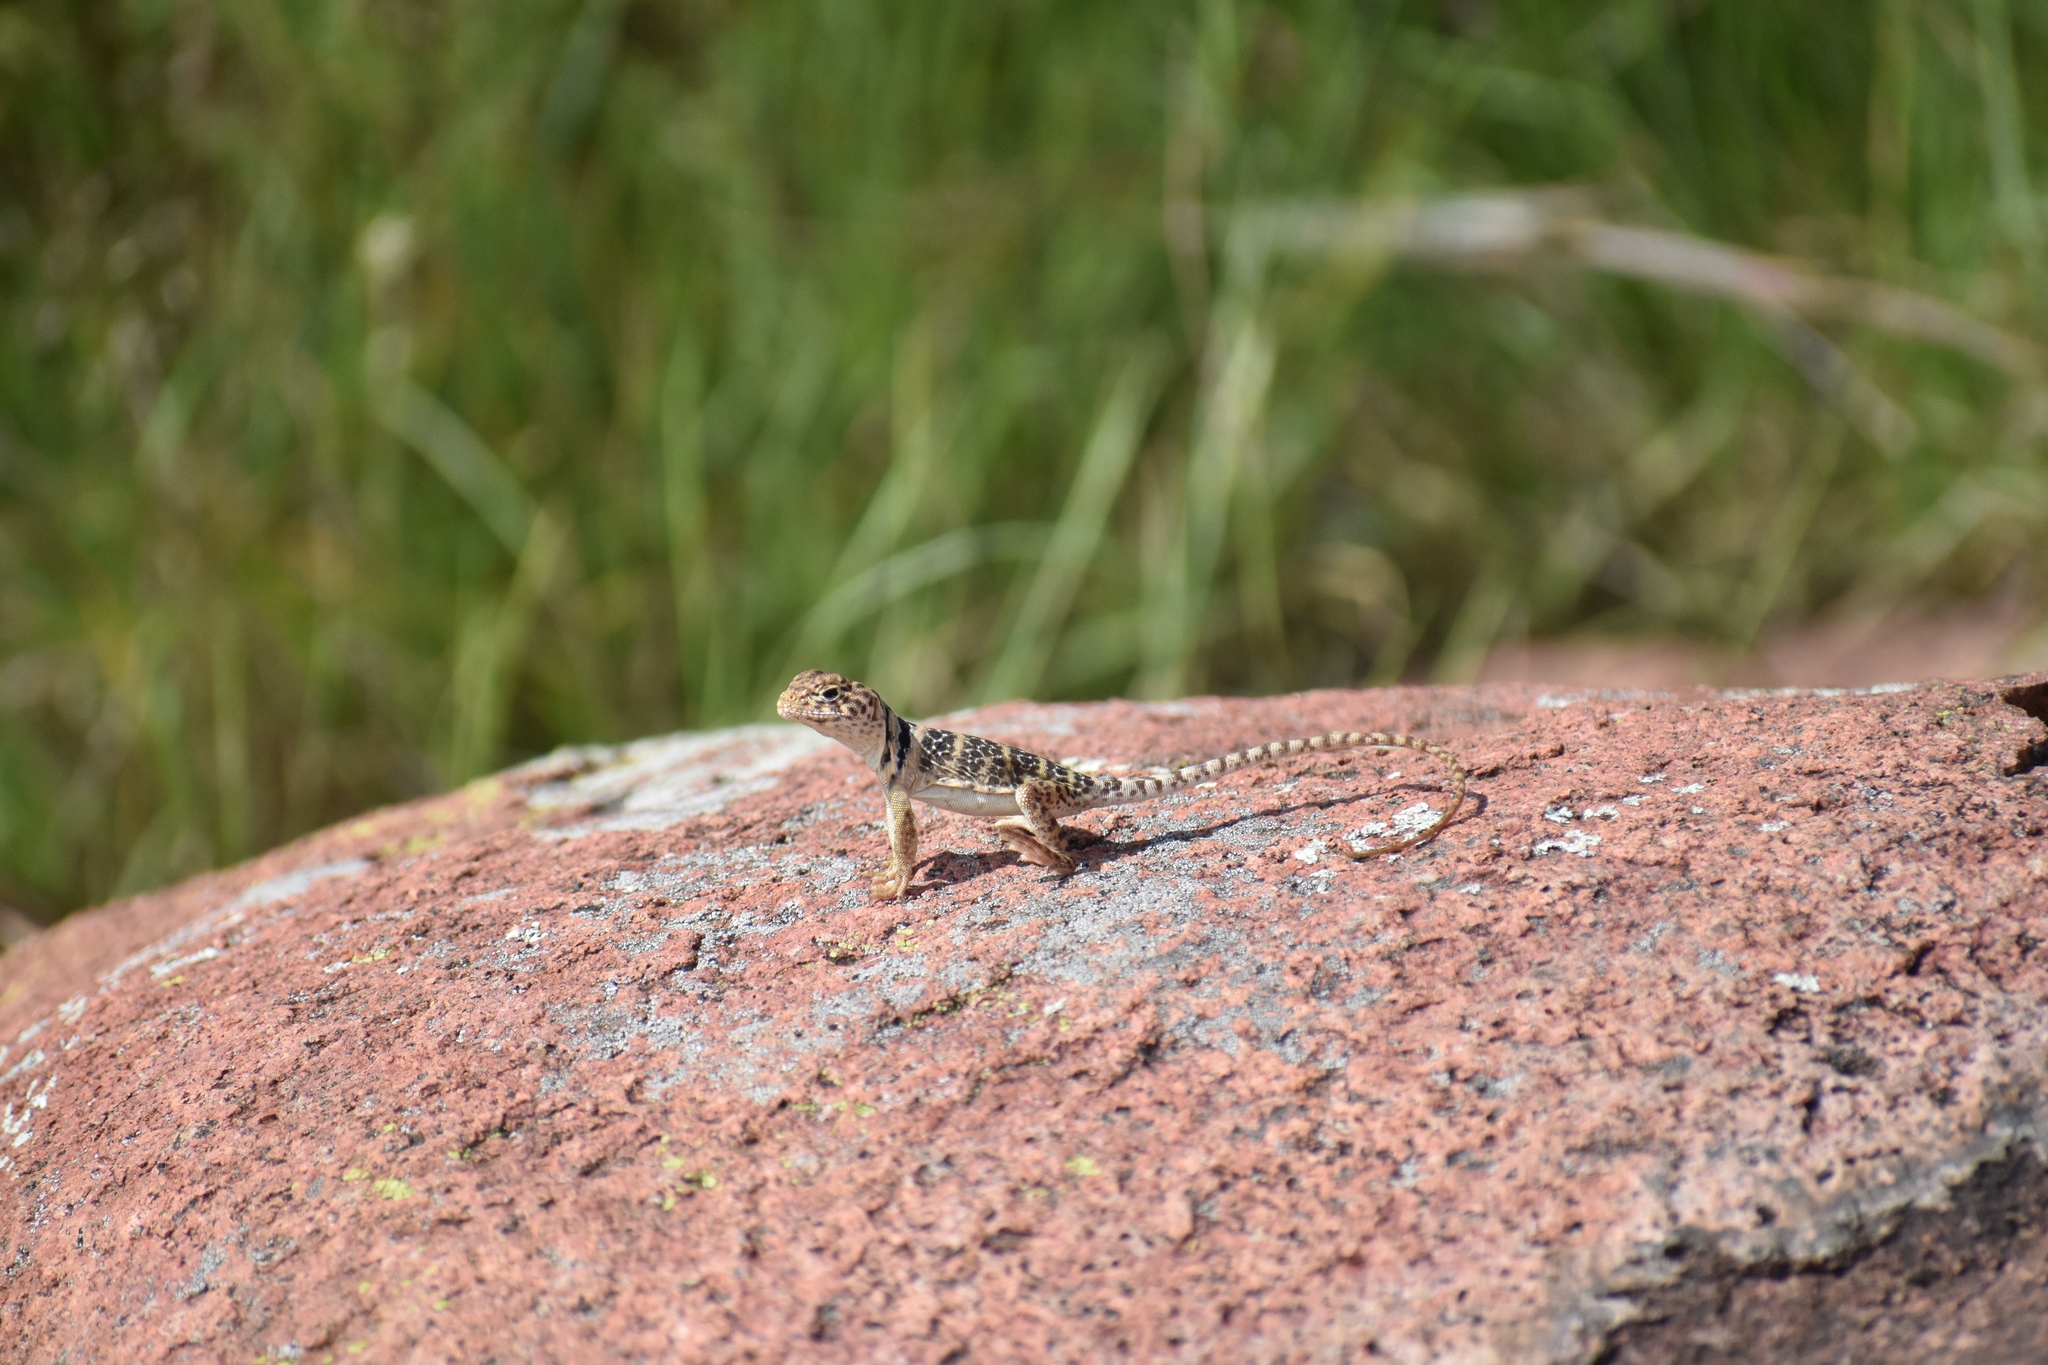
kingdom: Animalia
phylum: Chordata
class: Squamata
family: Crotaphytidae
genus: Crotaphytus
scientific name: Crotaphytus collaris
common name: Collared lizard
